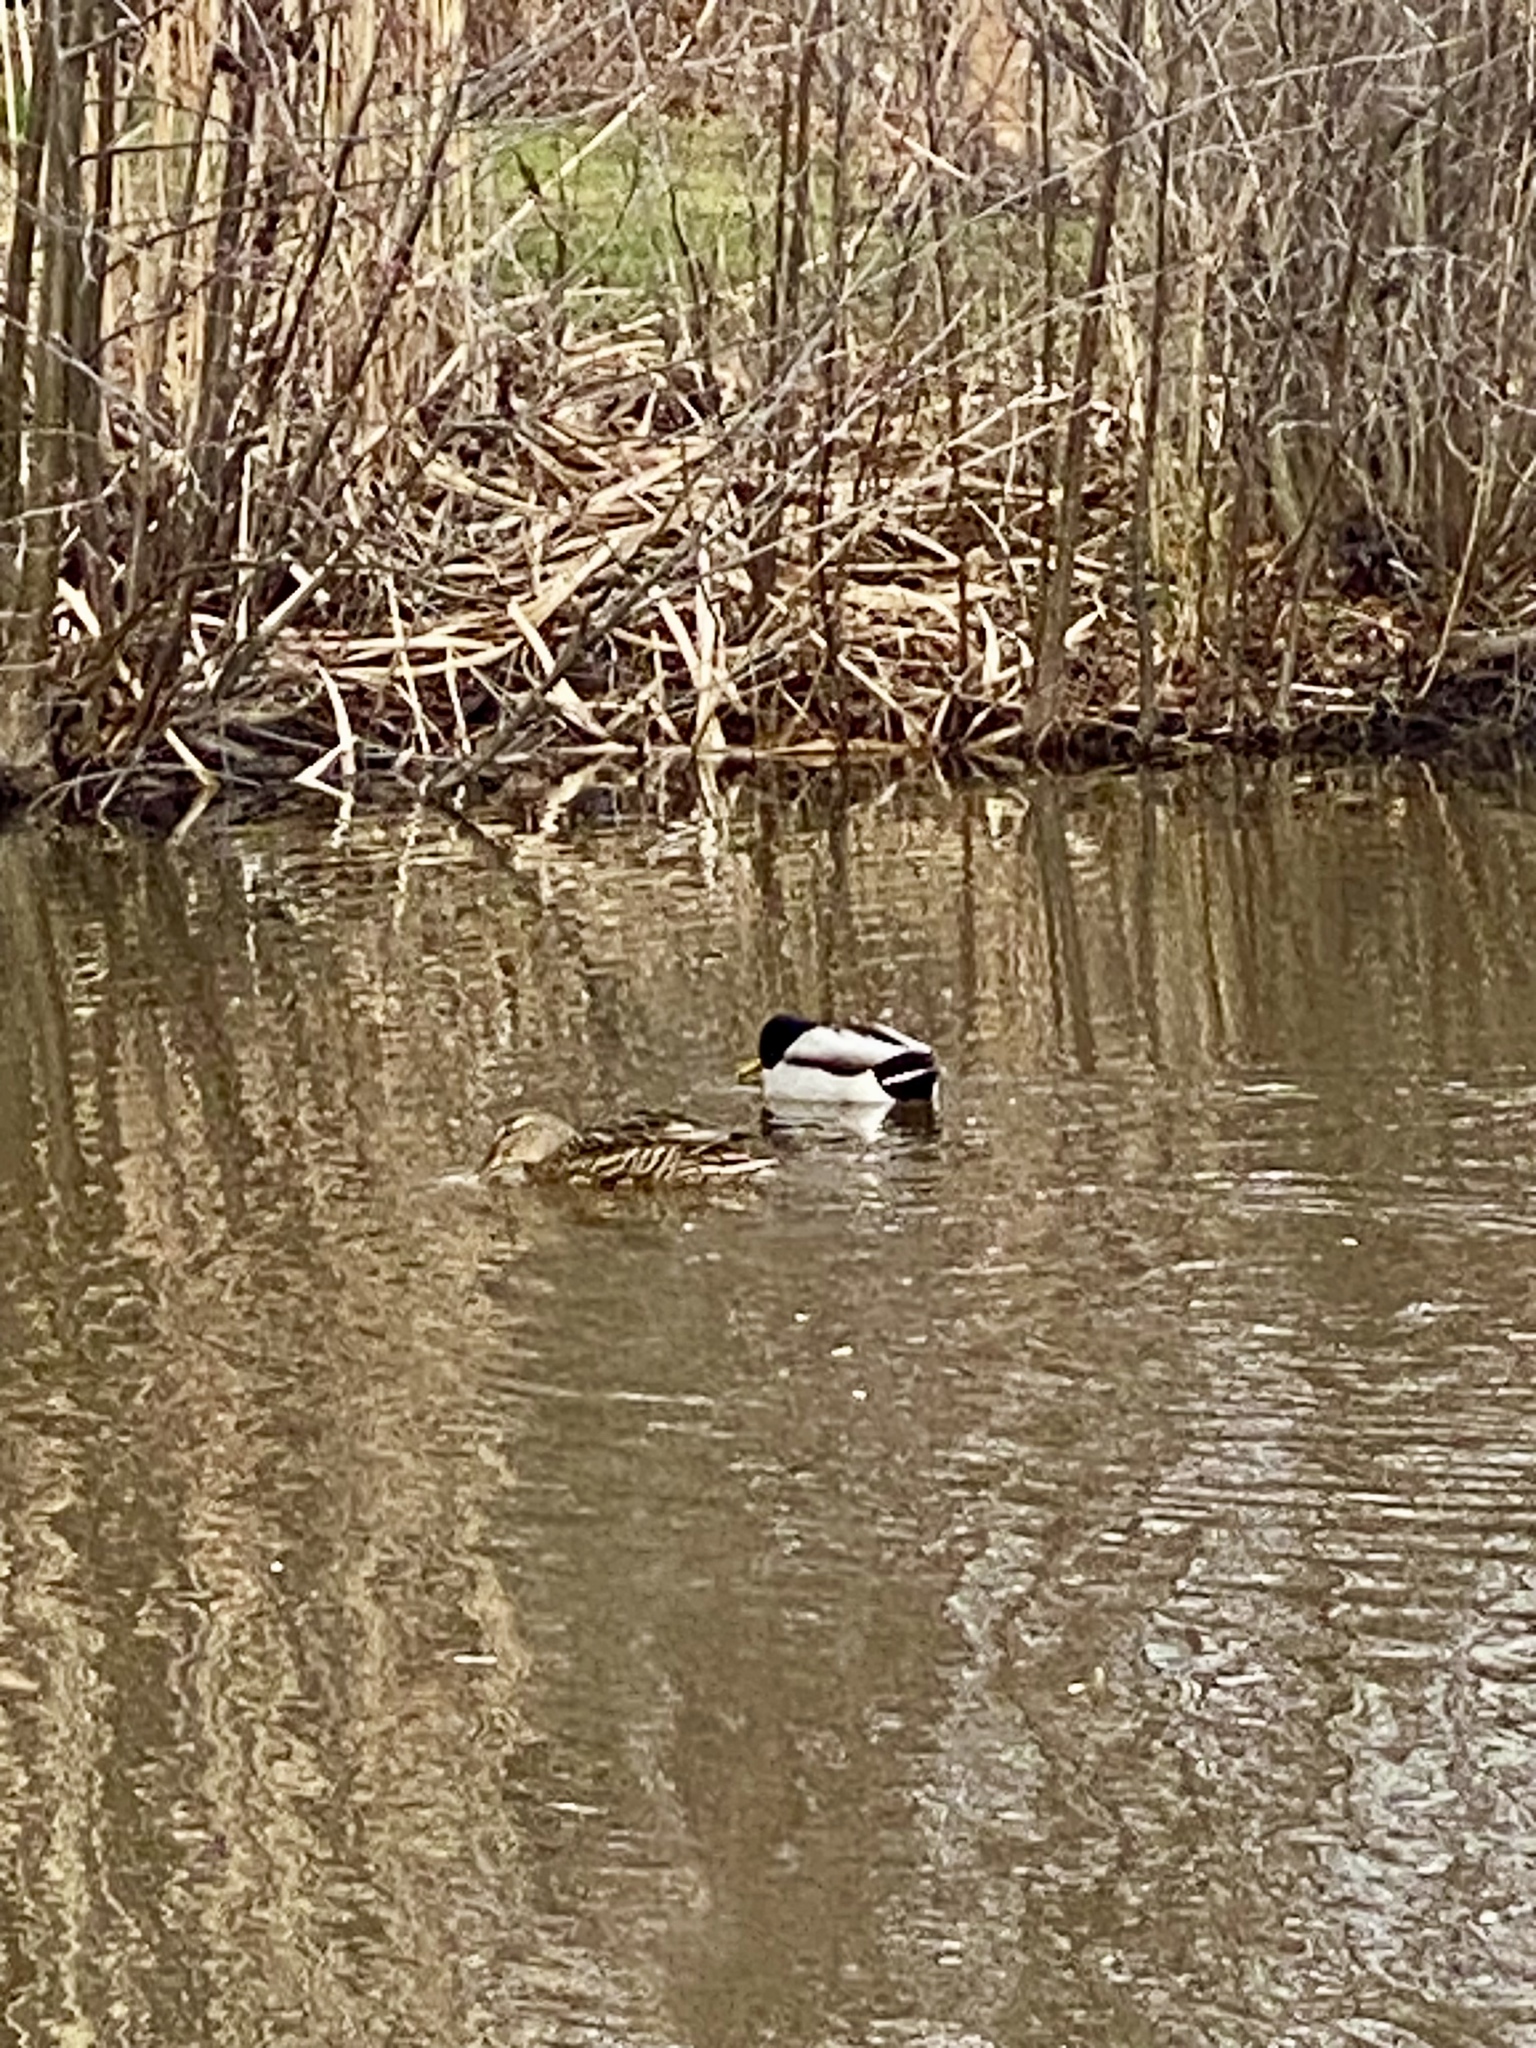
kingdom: Animalia
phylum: Chordata
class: Aves
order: Anseriformes
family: Anatidae
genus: Anas
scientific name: Anas platyrhynchos
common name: Mallard
